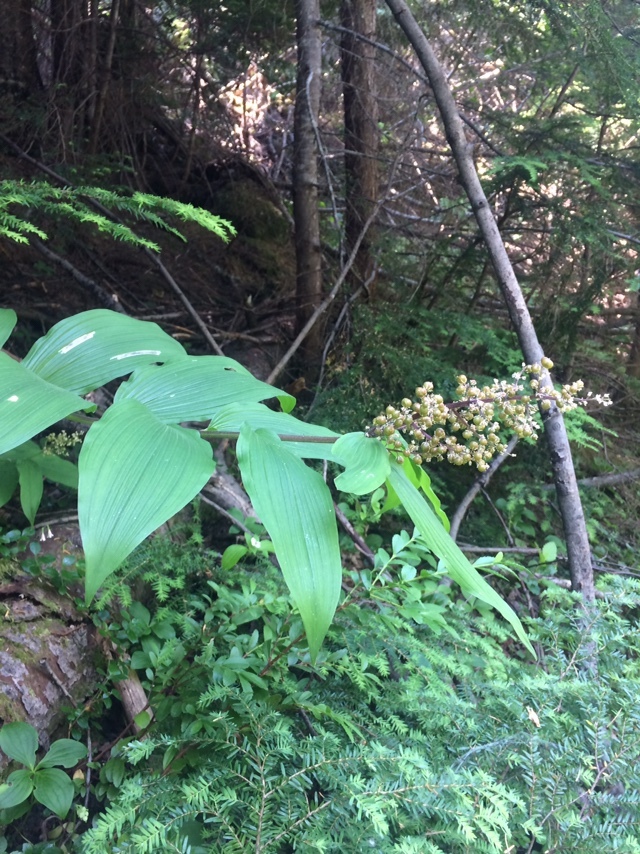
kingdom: Plantae
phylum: Tracheophyta
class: Liliopsida
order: Asparagales
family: Asparagaceae
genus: Maianthemum
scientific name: Maianthemum racemosum
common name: False spikenard
